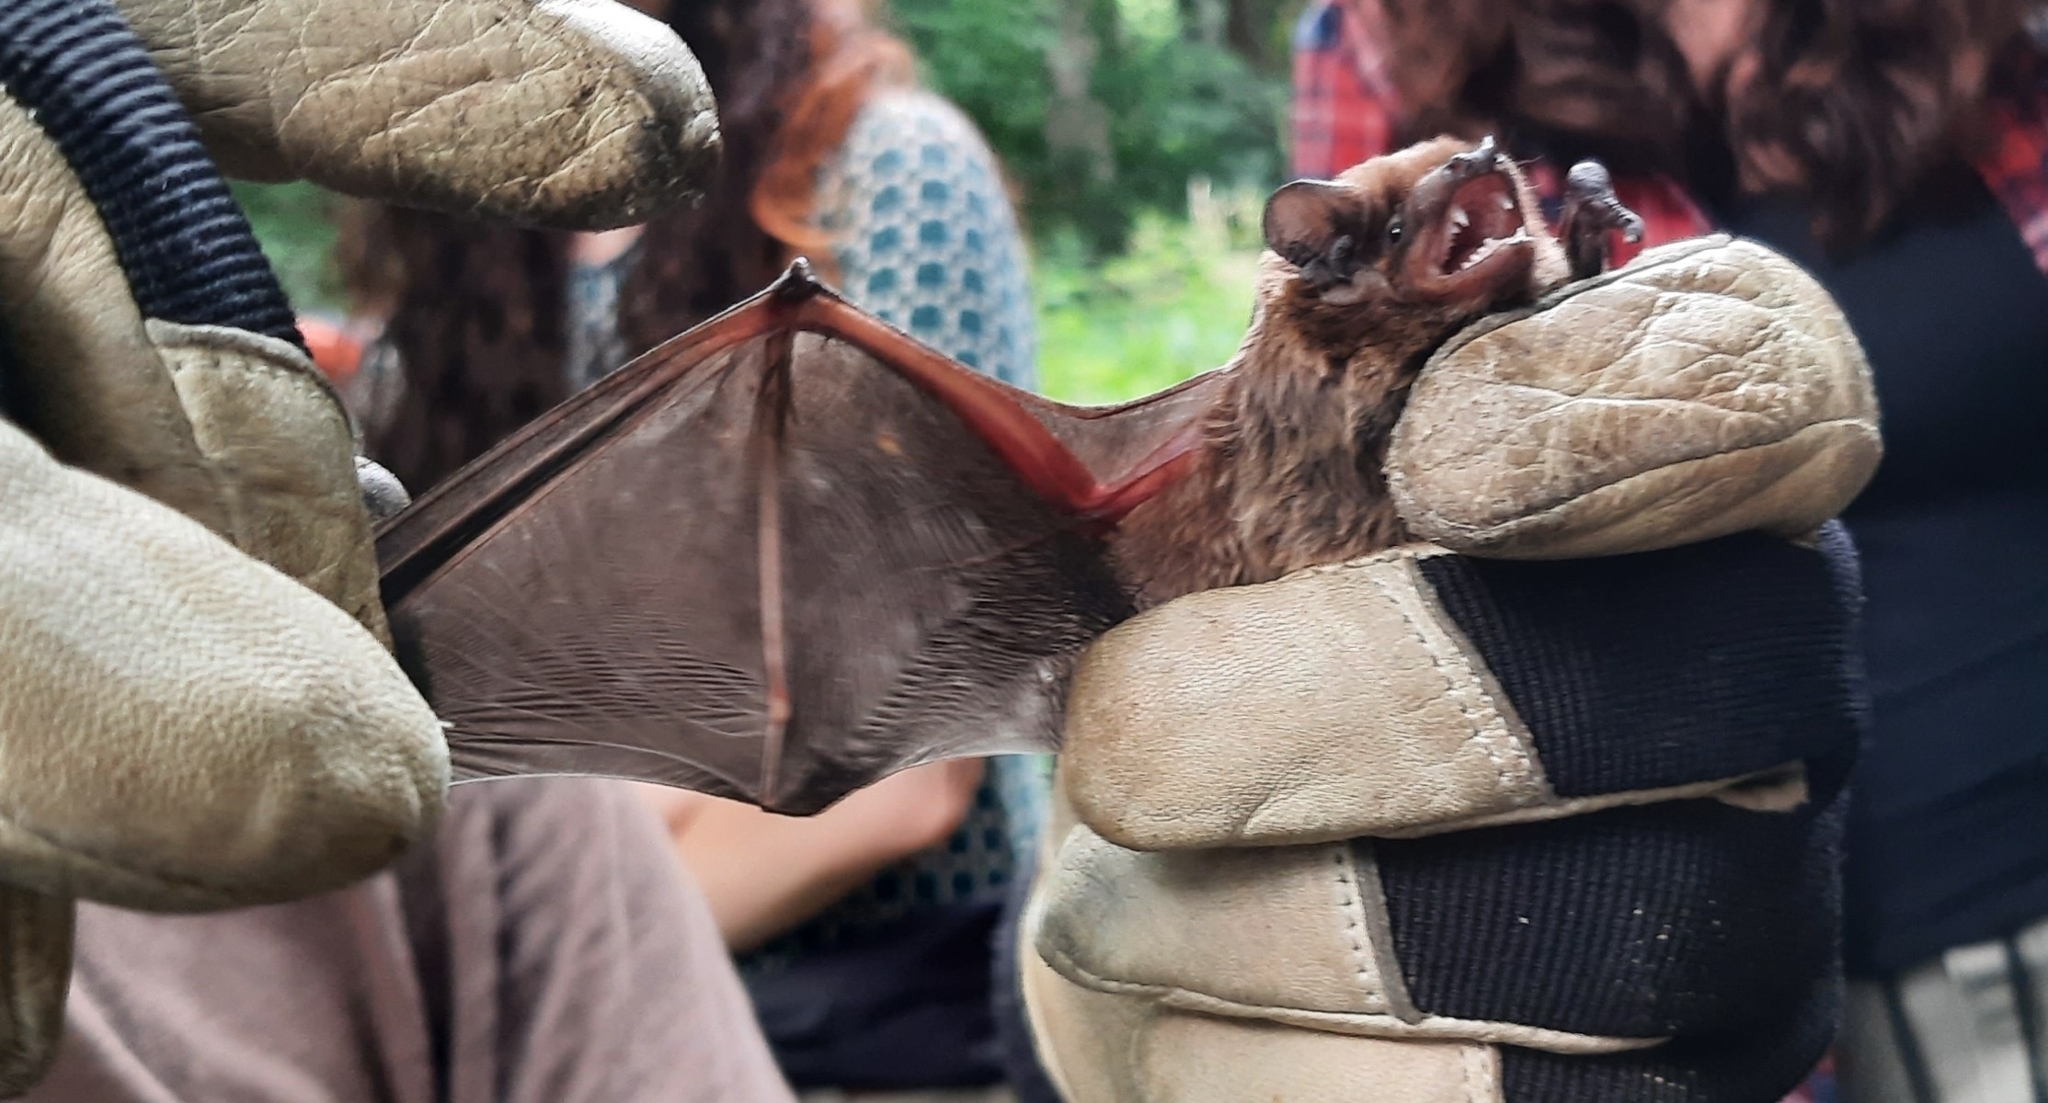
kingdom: Animalia
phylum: Chordata
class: Mammalia
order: Chiroptera
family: Vespertilionidae
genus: Nyctalus
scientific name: Nyctalus leisleri
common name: Lesser noctule
